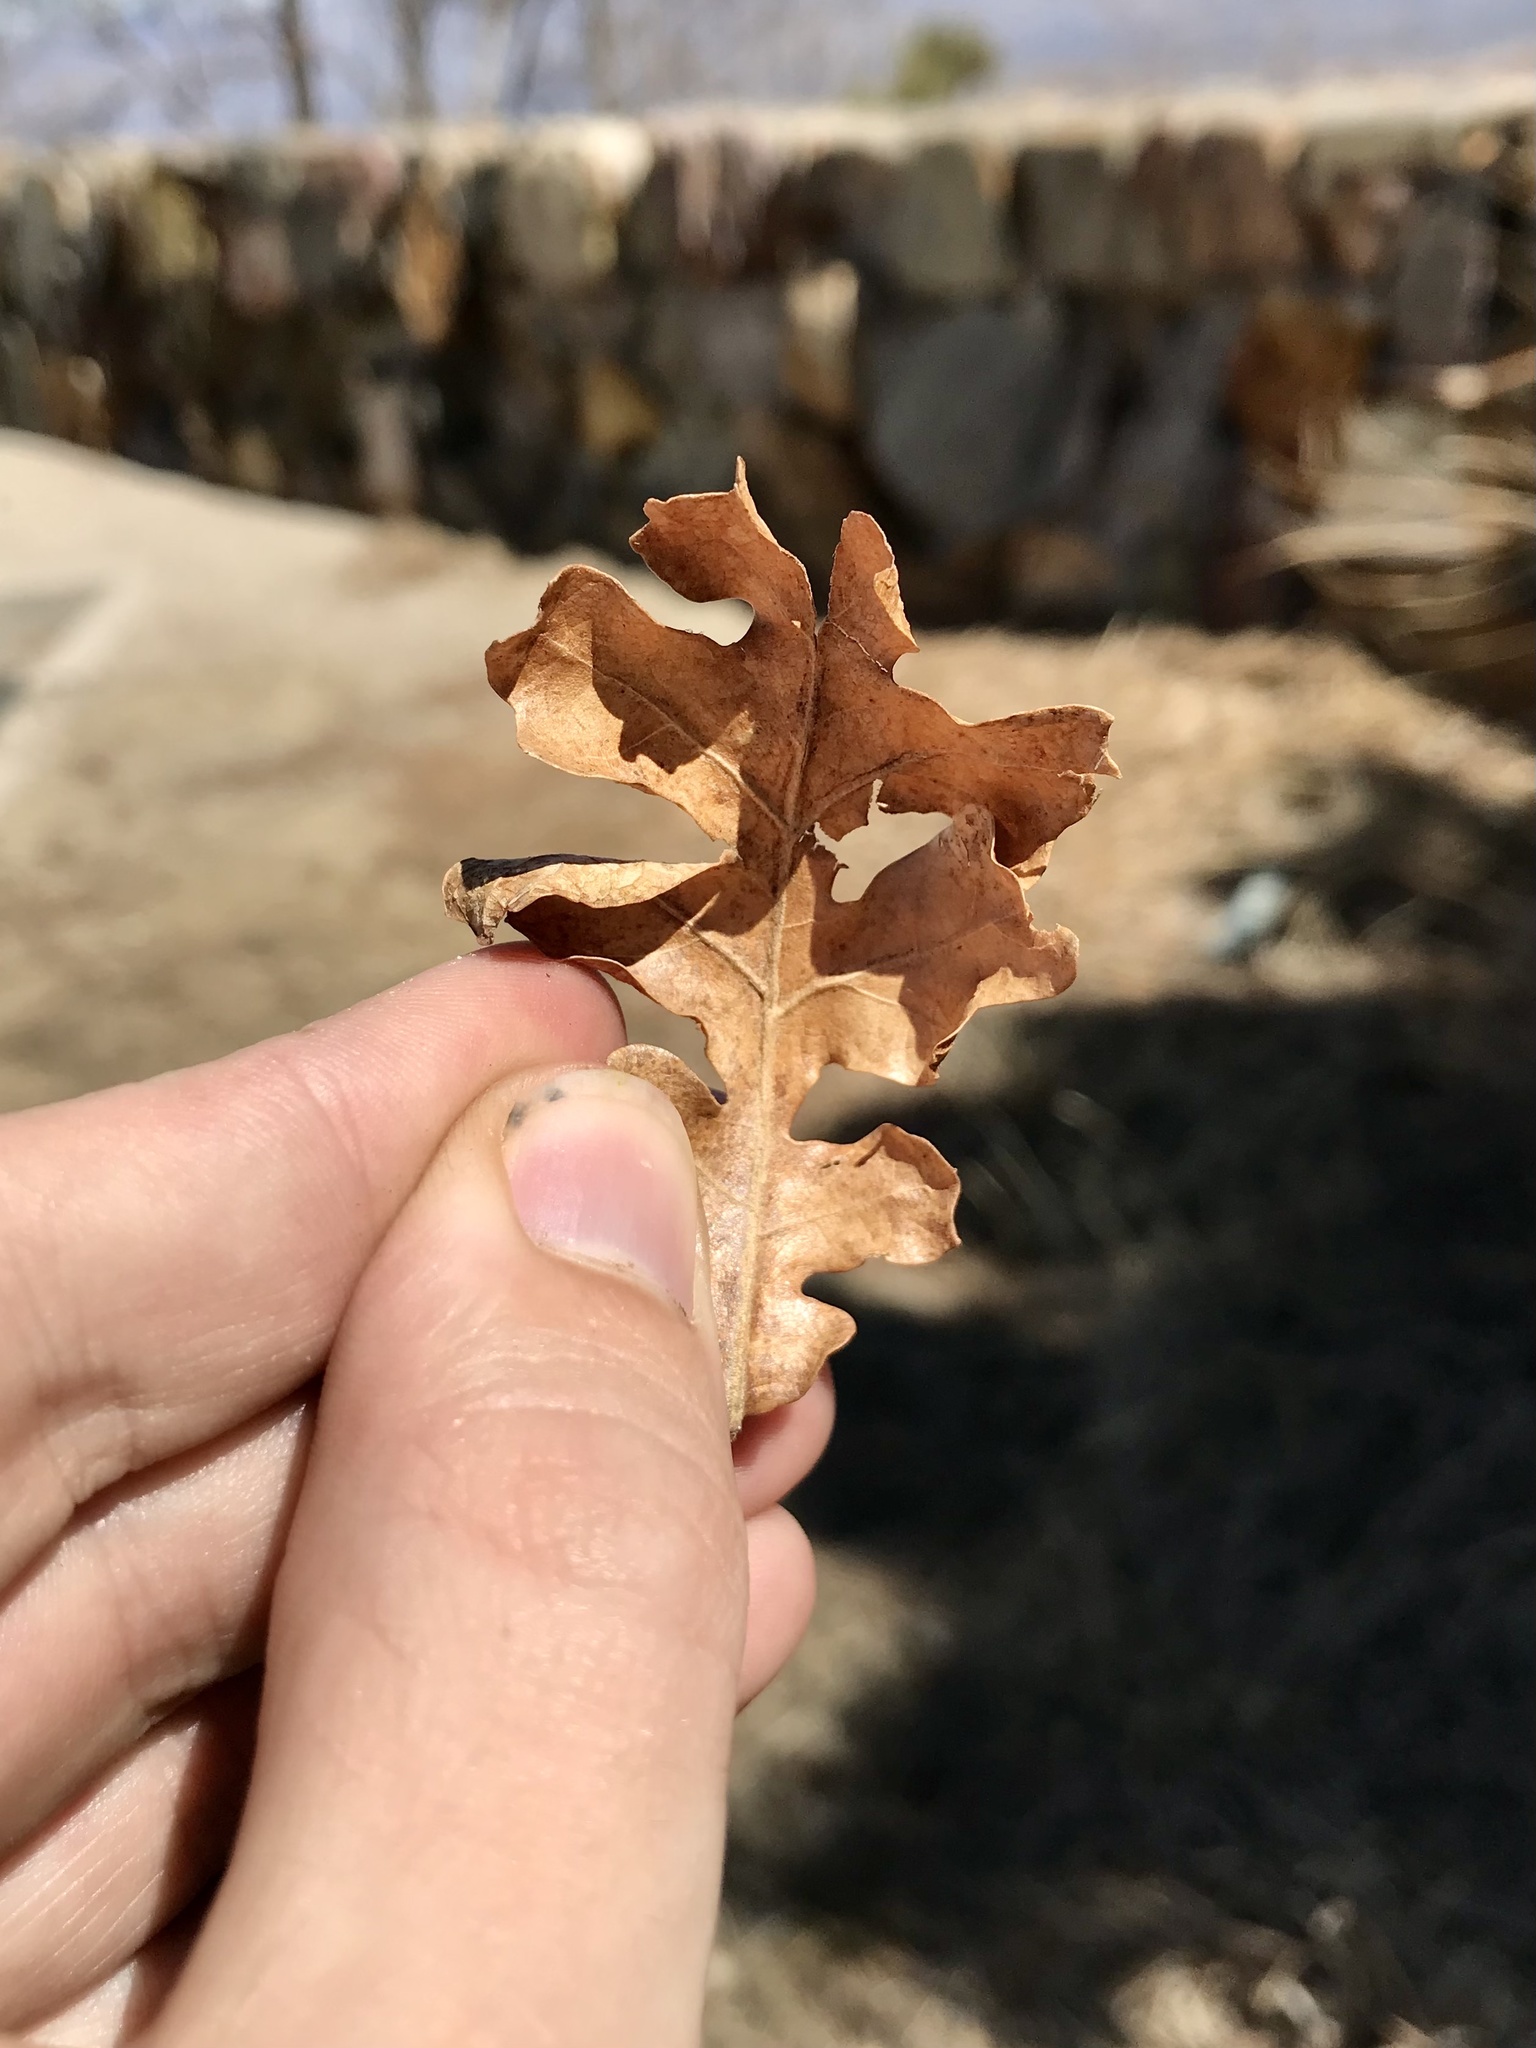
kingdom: Plantae
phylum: Tracheophyta
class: Magnoliopsida
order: Fagales
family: Fagaceae
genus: Quercus
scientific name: Quercus gambelii
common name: Gambel oak
